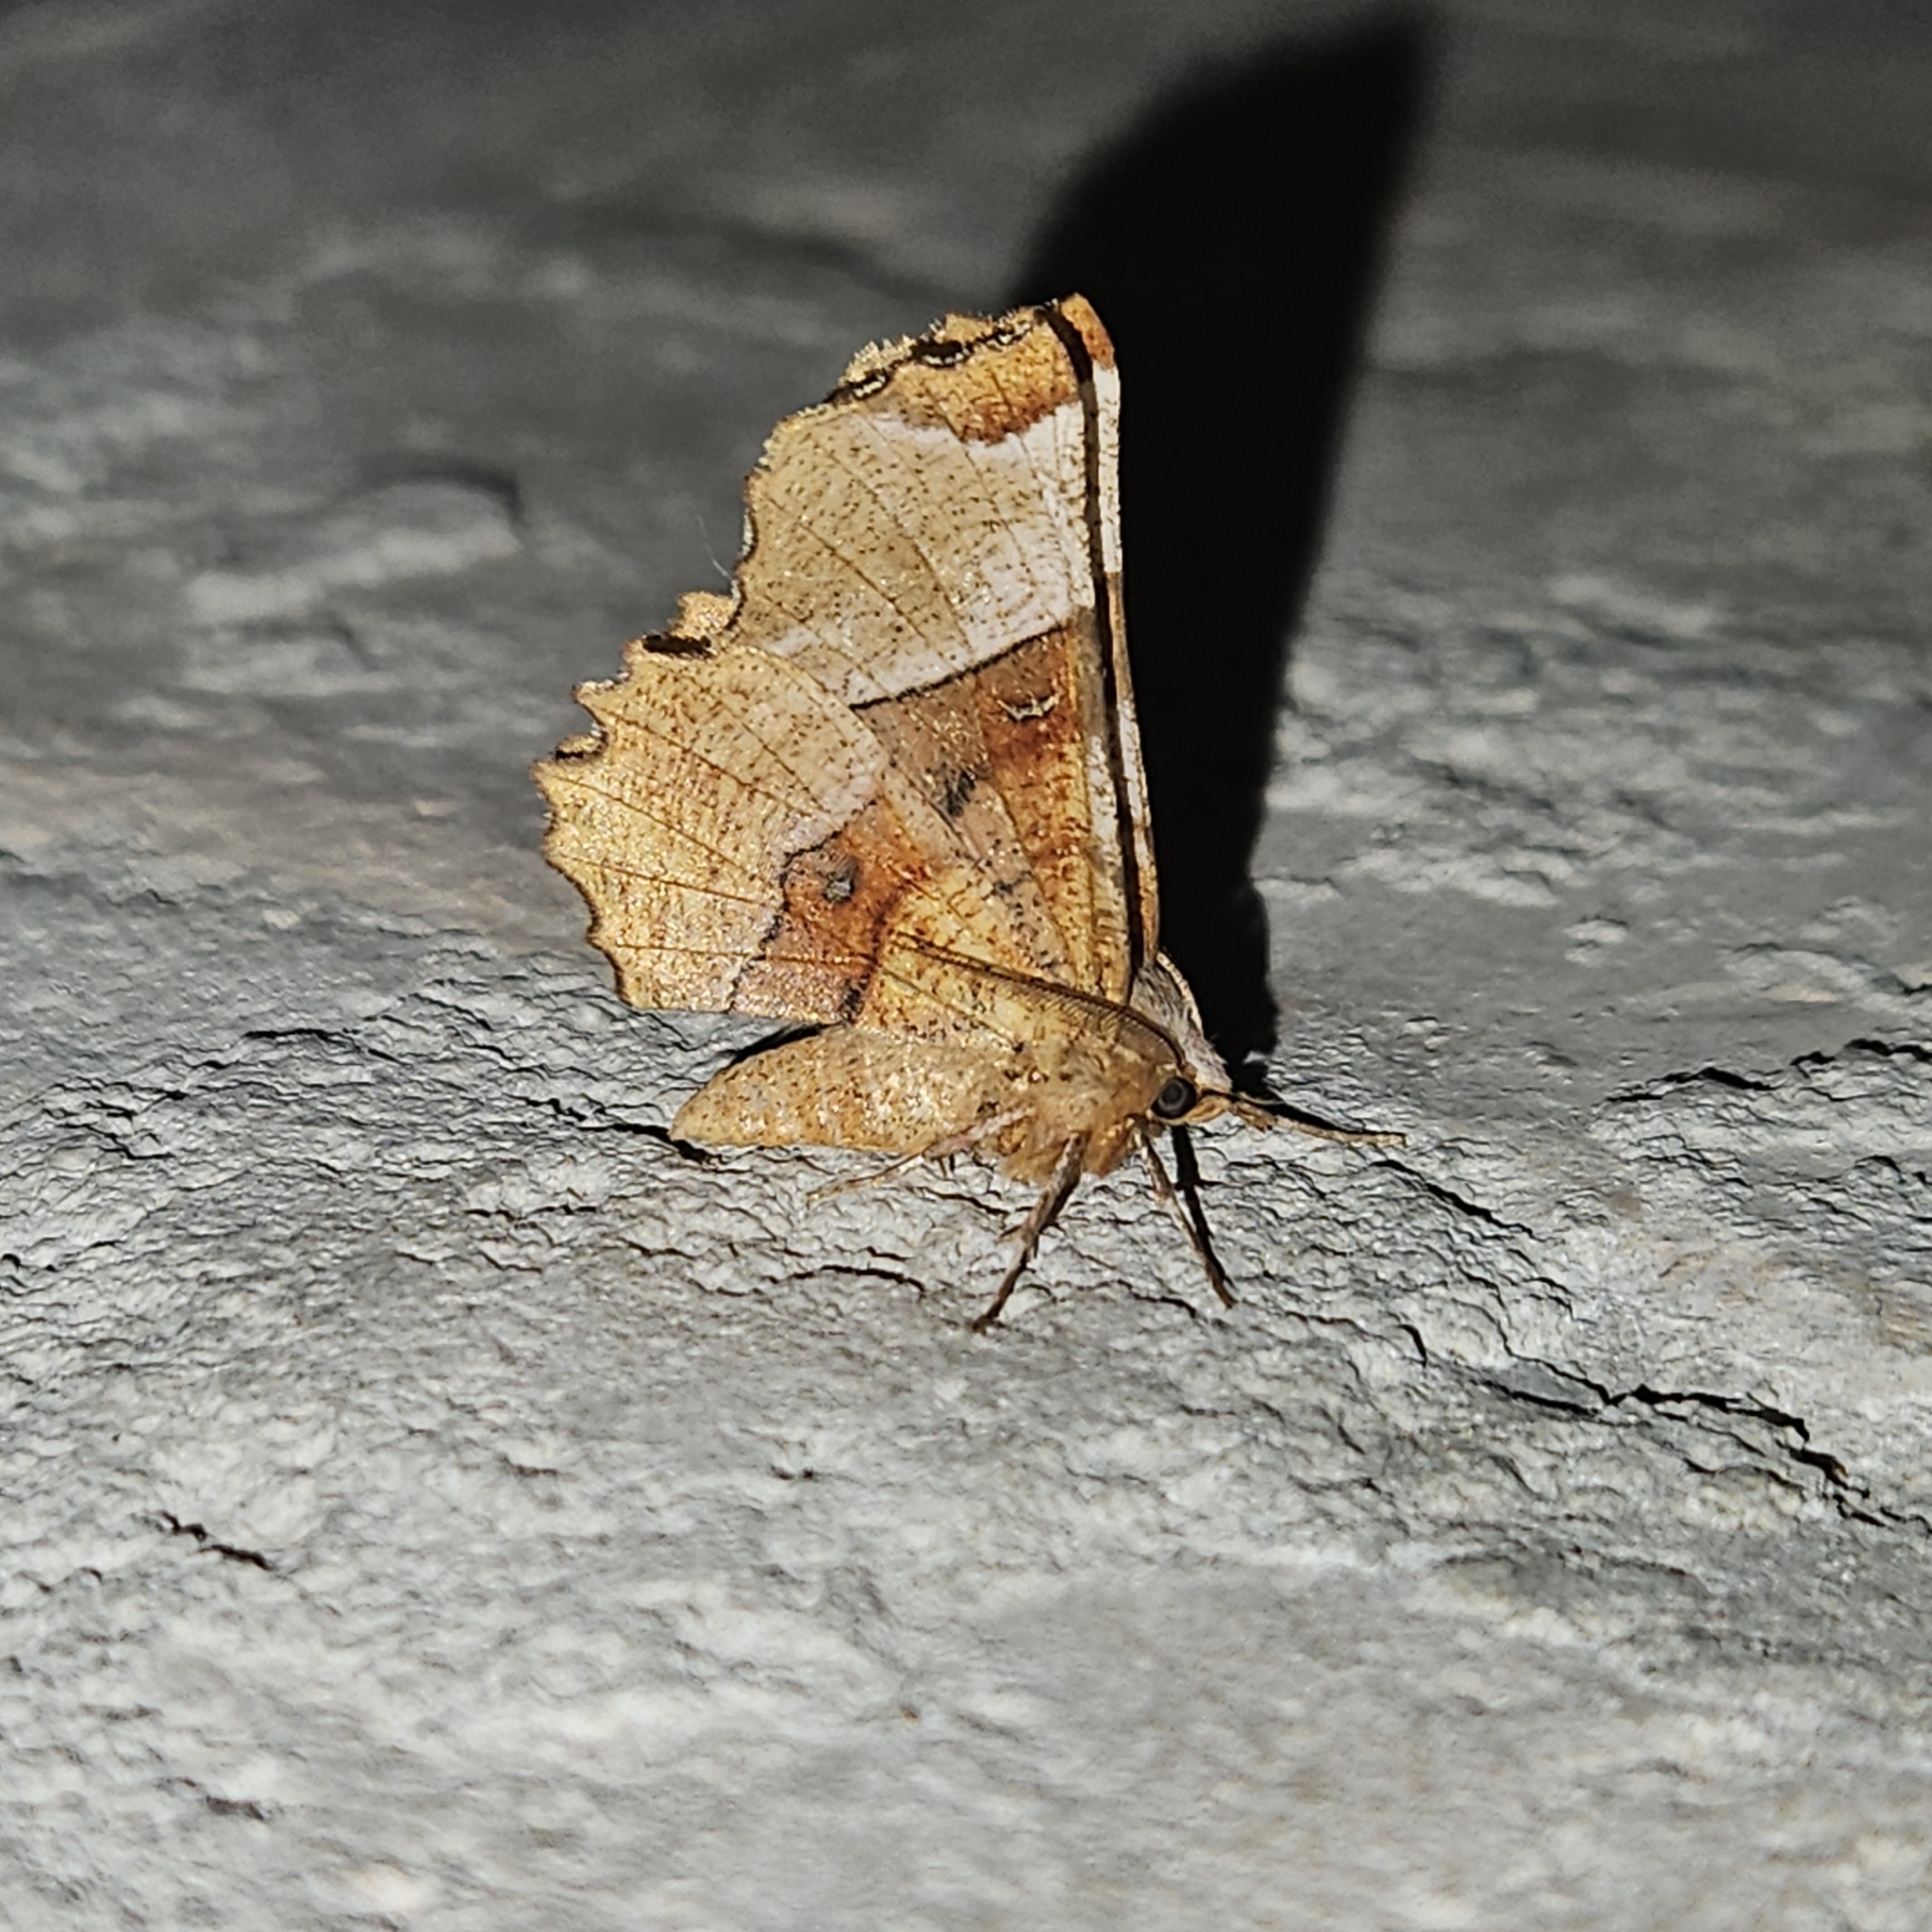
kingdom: Animalia
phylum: Arthropoda
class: Insecta
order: Lepidoptera
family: Geometridae
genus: Selenia
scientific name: Selenia lunularia
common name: Lunar thorn
